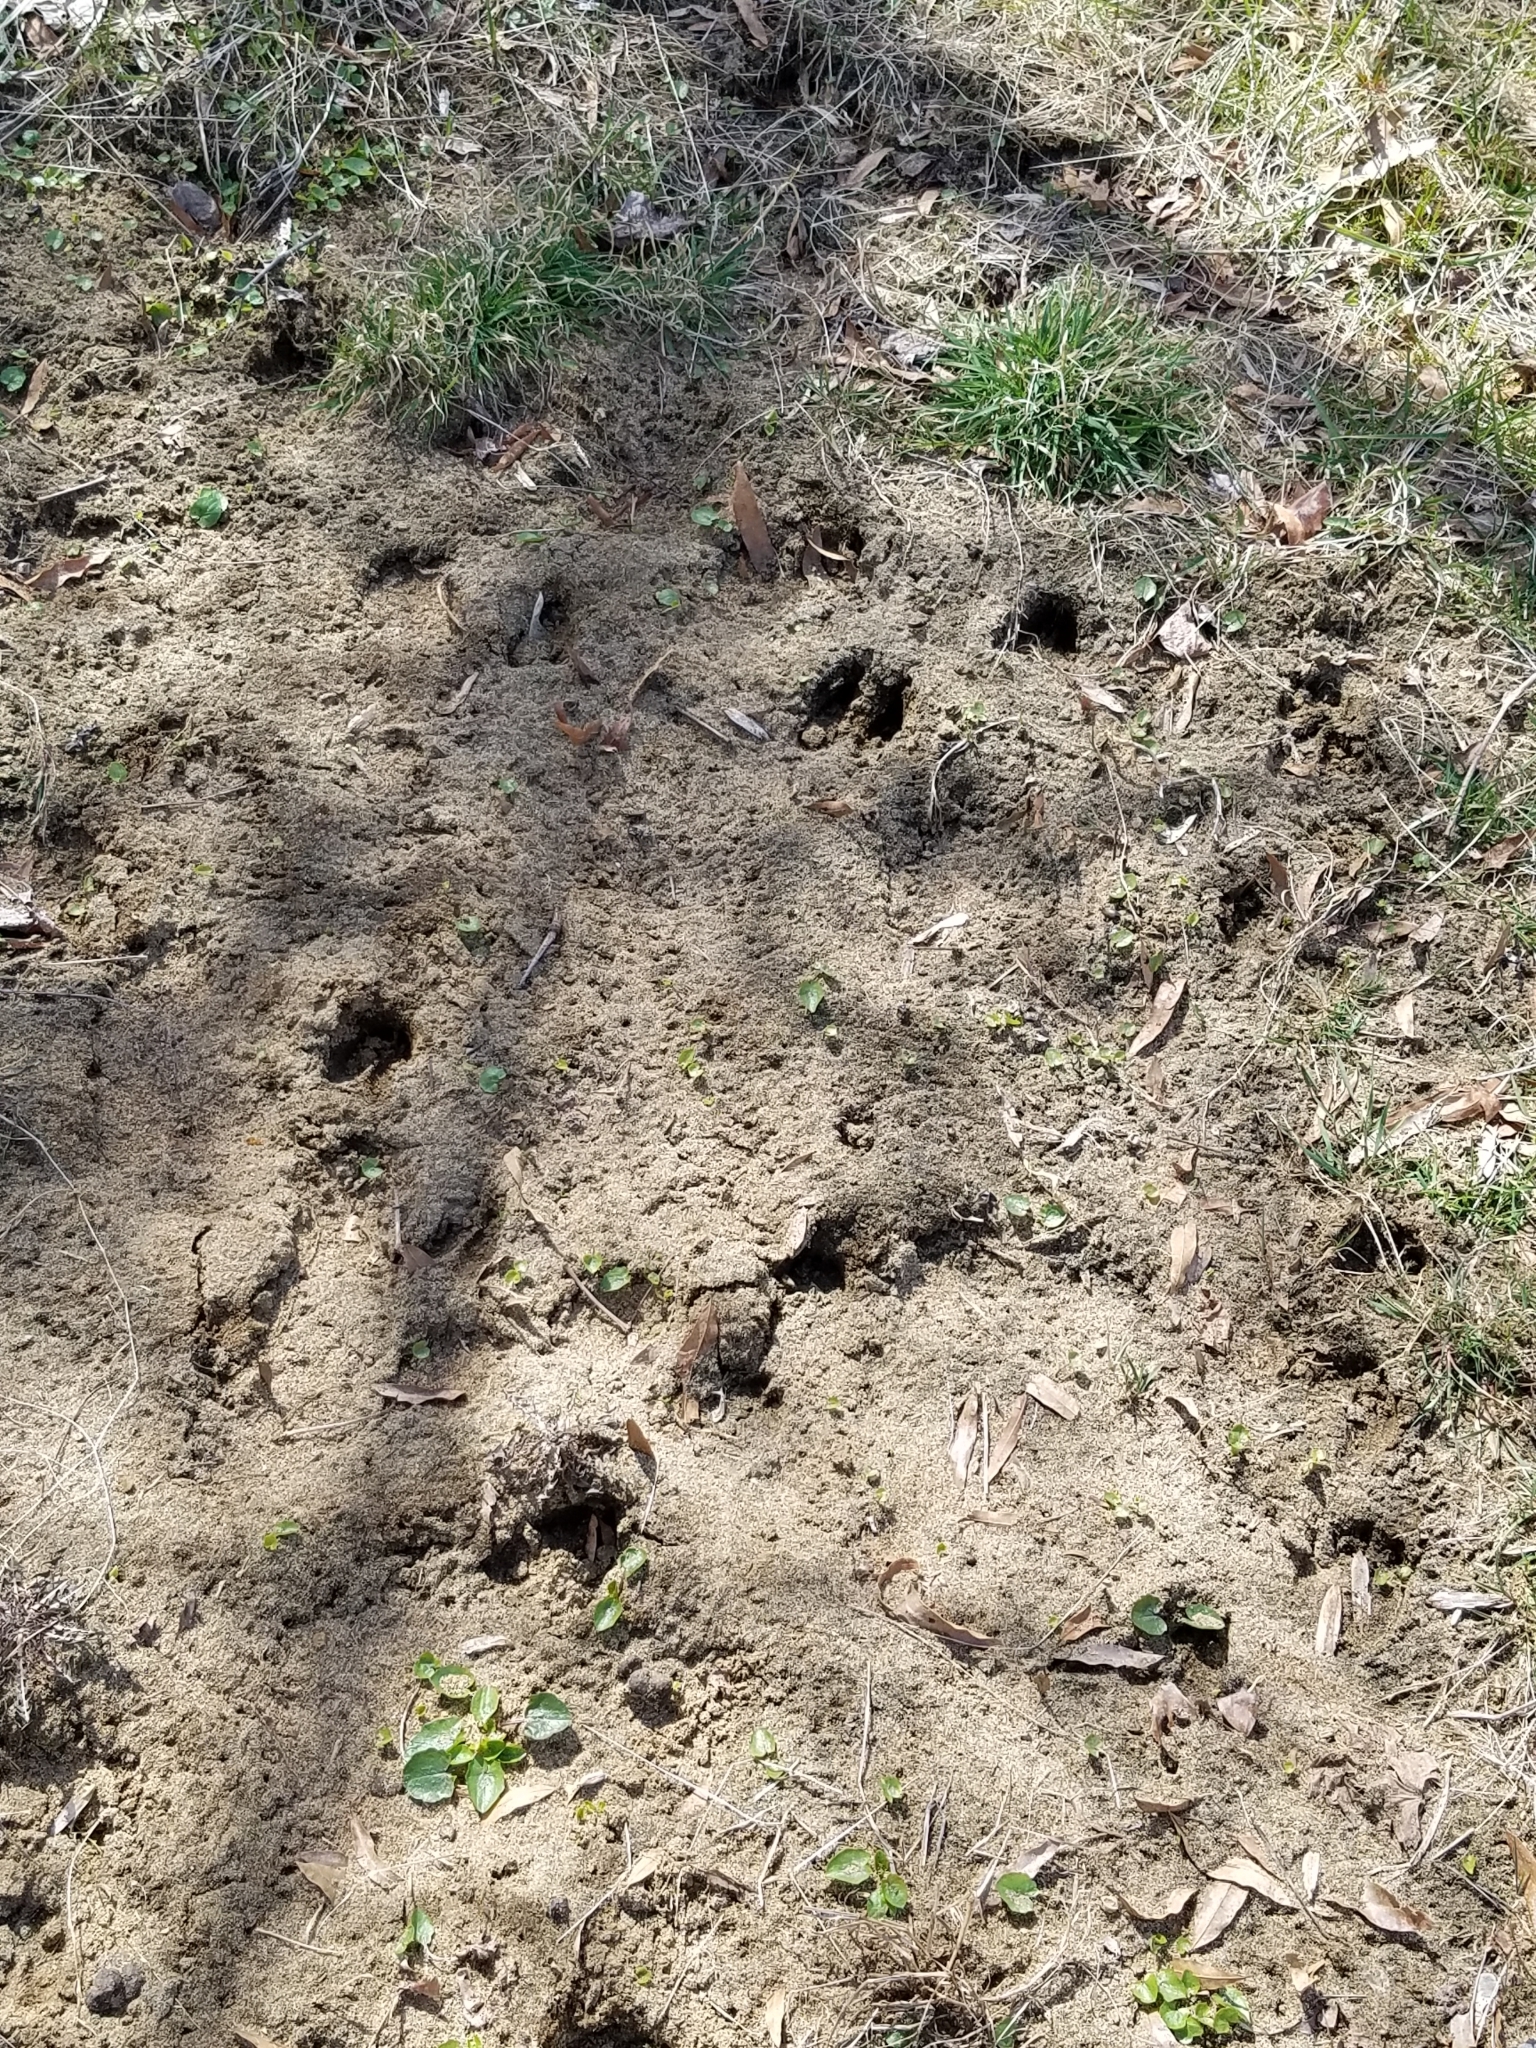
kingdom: Animalia
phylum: Chordata
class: Mammalia
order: Artiodactyla
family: Cervidae
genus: Odocoileus
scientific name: Odocoileus virginianus
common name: White-tailed deer
